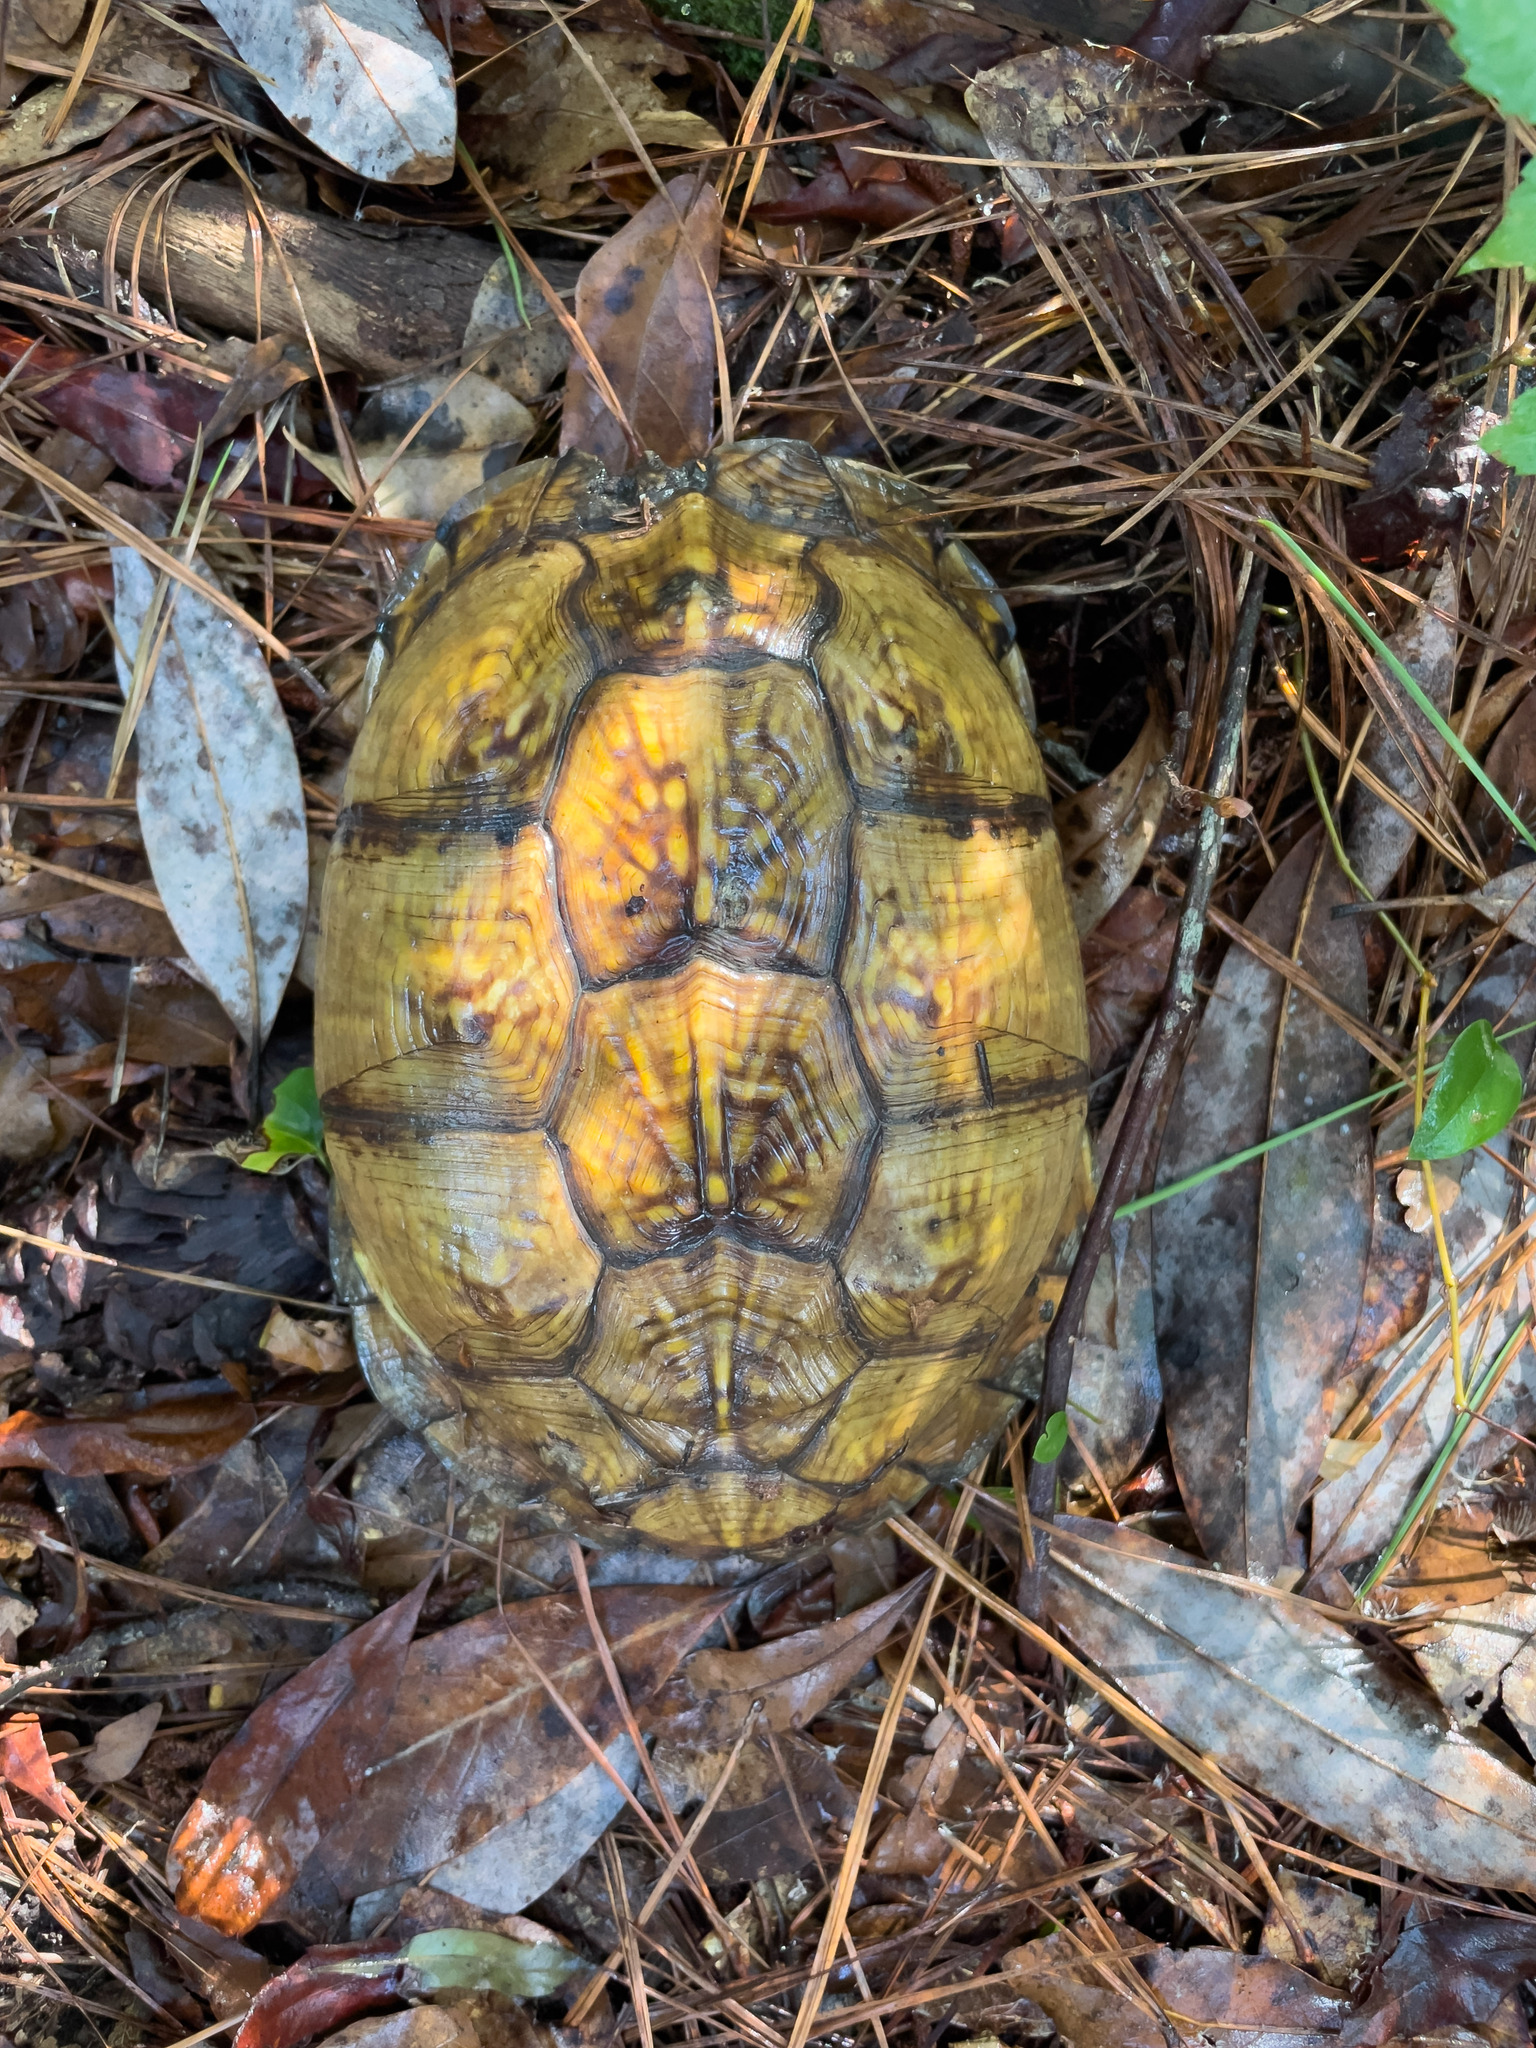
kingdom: Animalia
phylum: Chordata
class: Testudines
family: Emydidae
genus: Terrapene
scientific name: Terrapene carolina
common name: Common box turtle
